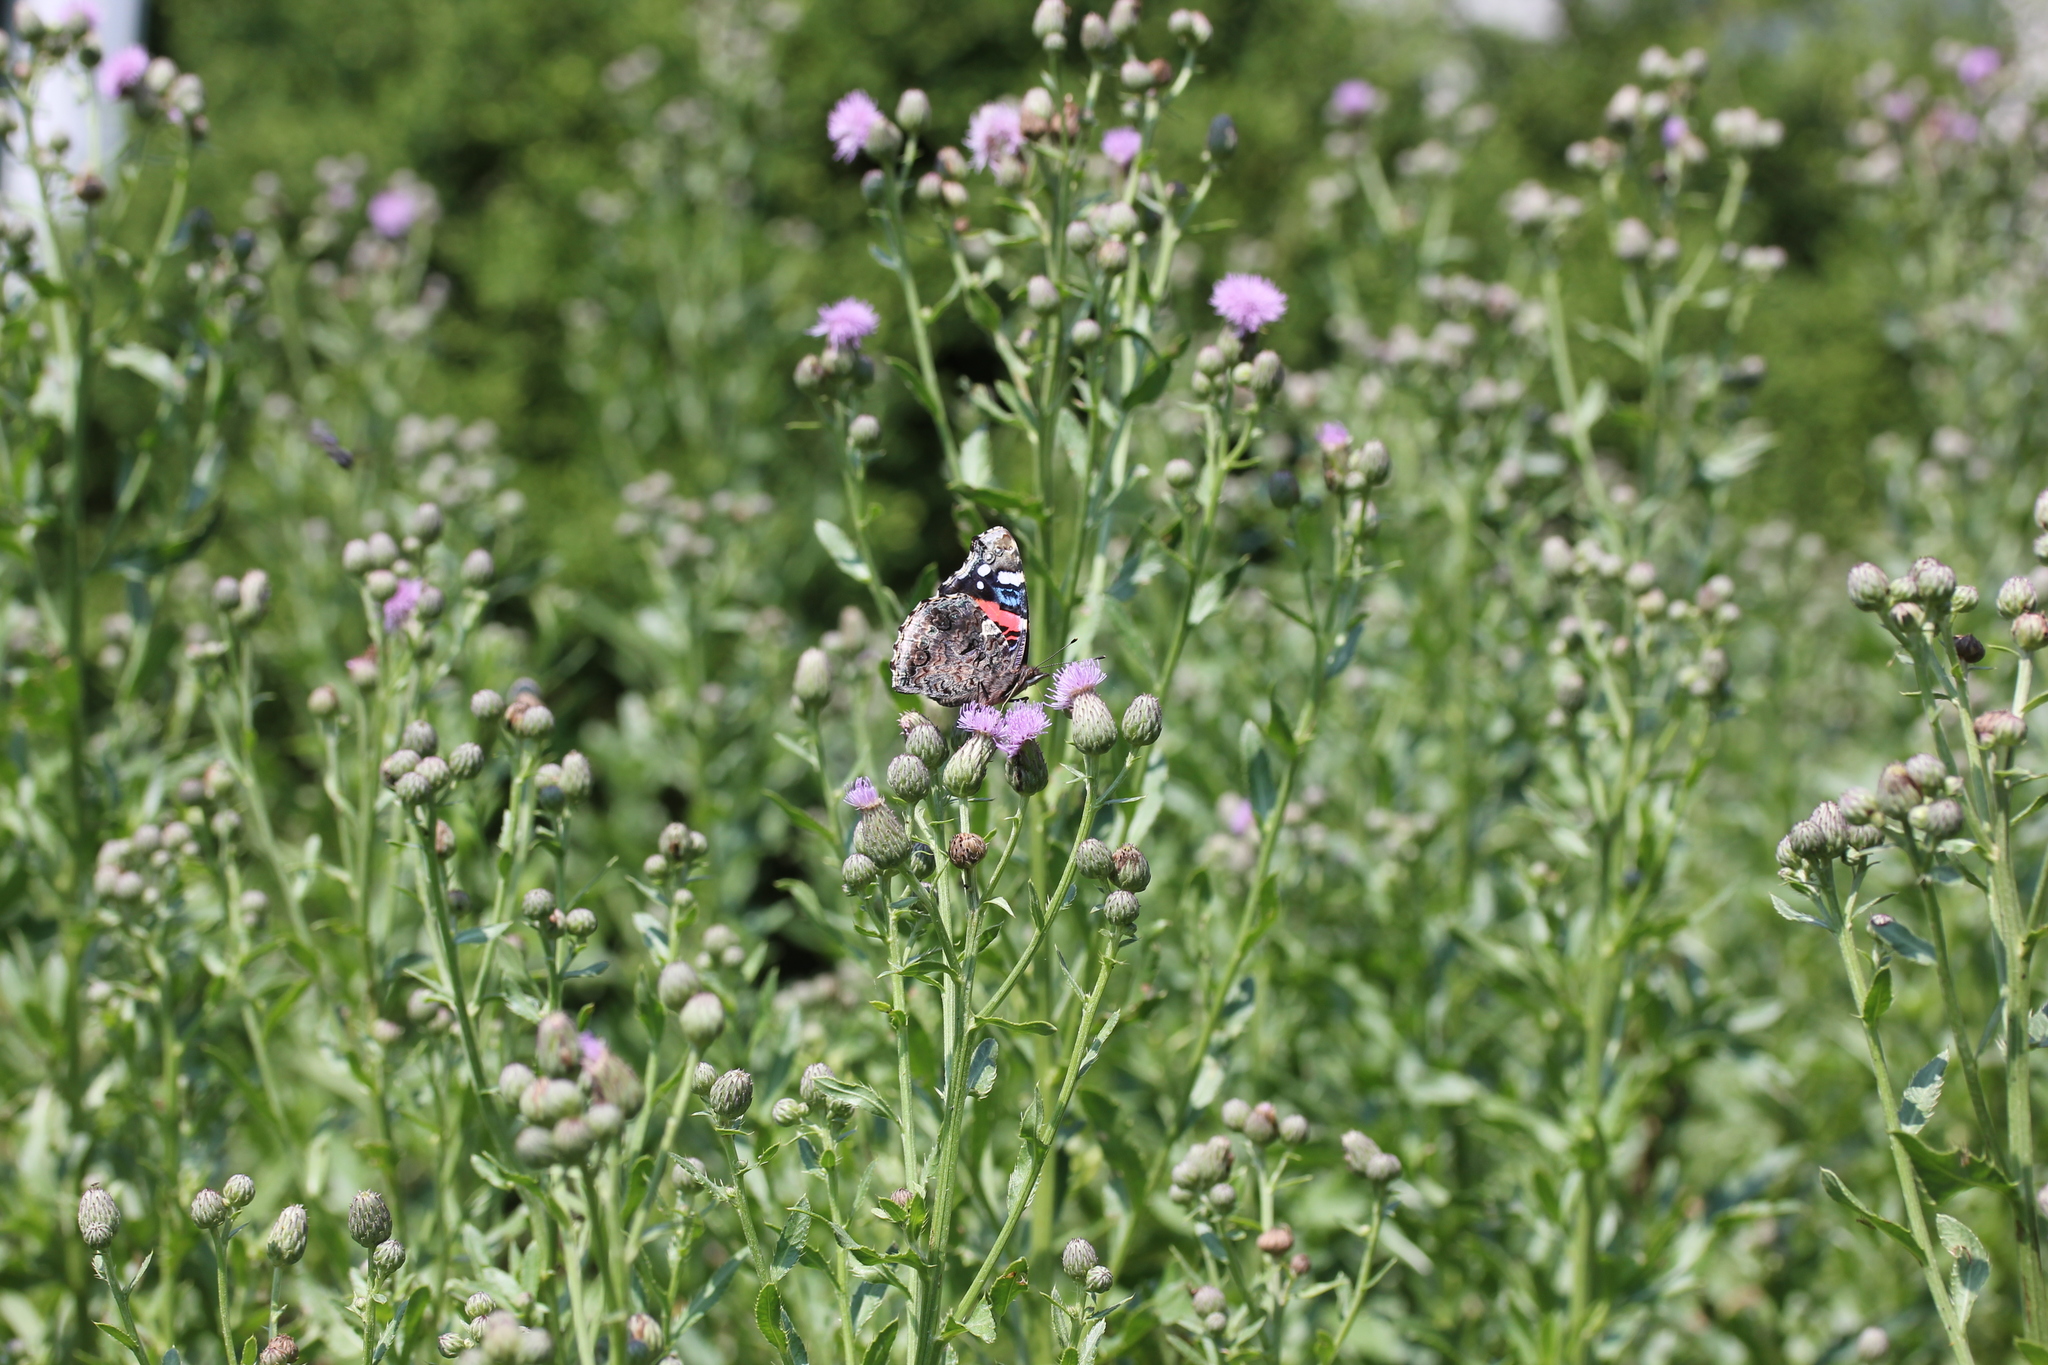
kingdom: Plantae
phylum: Tracheophyta
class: Magnoliopsida
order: Asterales
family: Asteraceae
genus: Cirsium
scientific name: Cirsium arvense
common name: Creeping thistle
